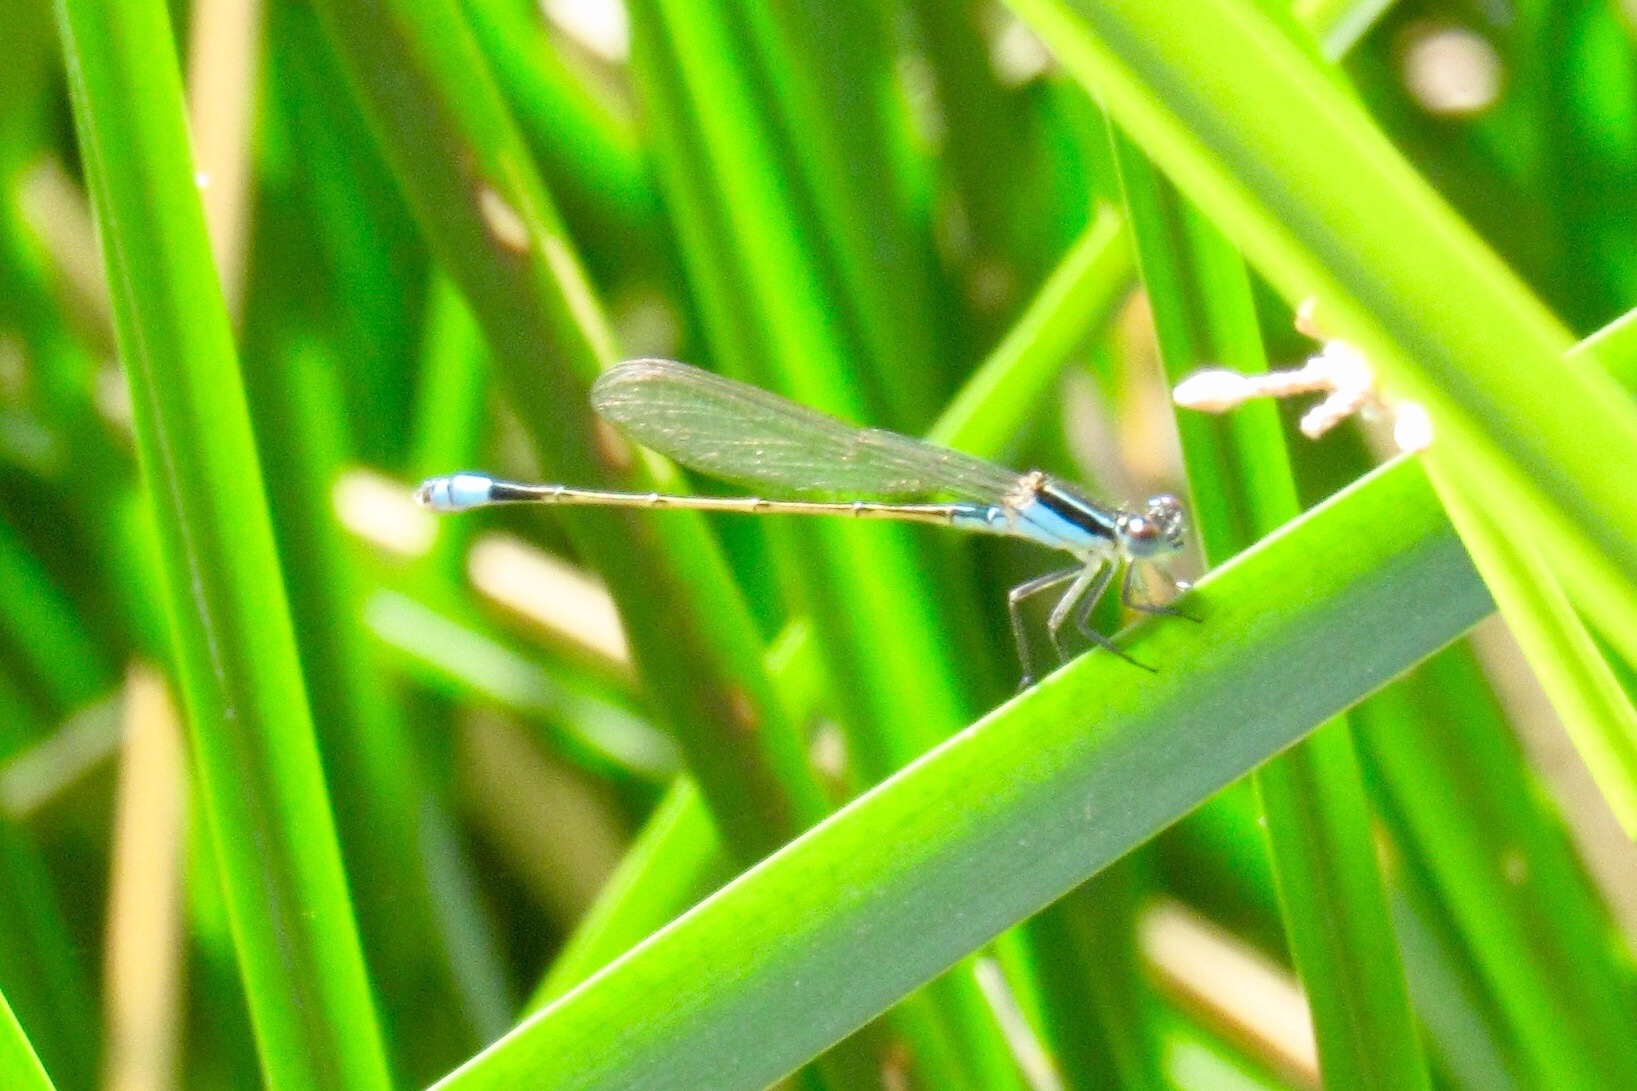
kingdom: Animalia
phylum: Arthropoda
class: Insecta
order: Odonata
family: Coenagrionidae
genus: Ischnura
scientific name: Ischnura ramburii
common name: Rambur's forktail
